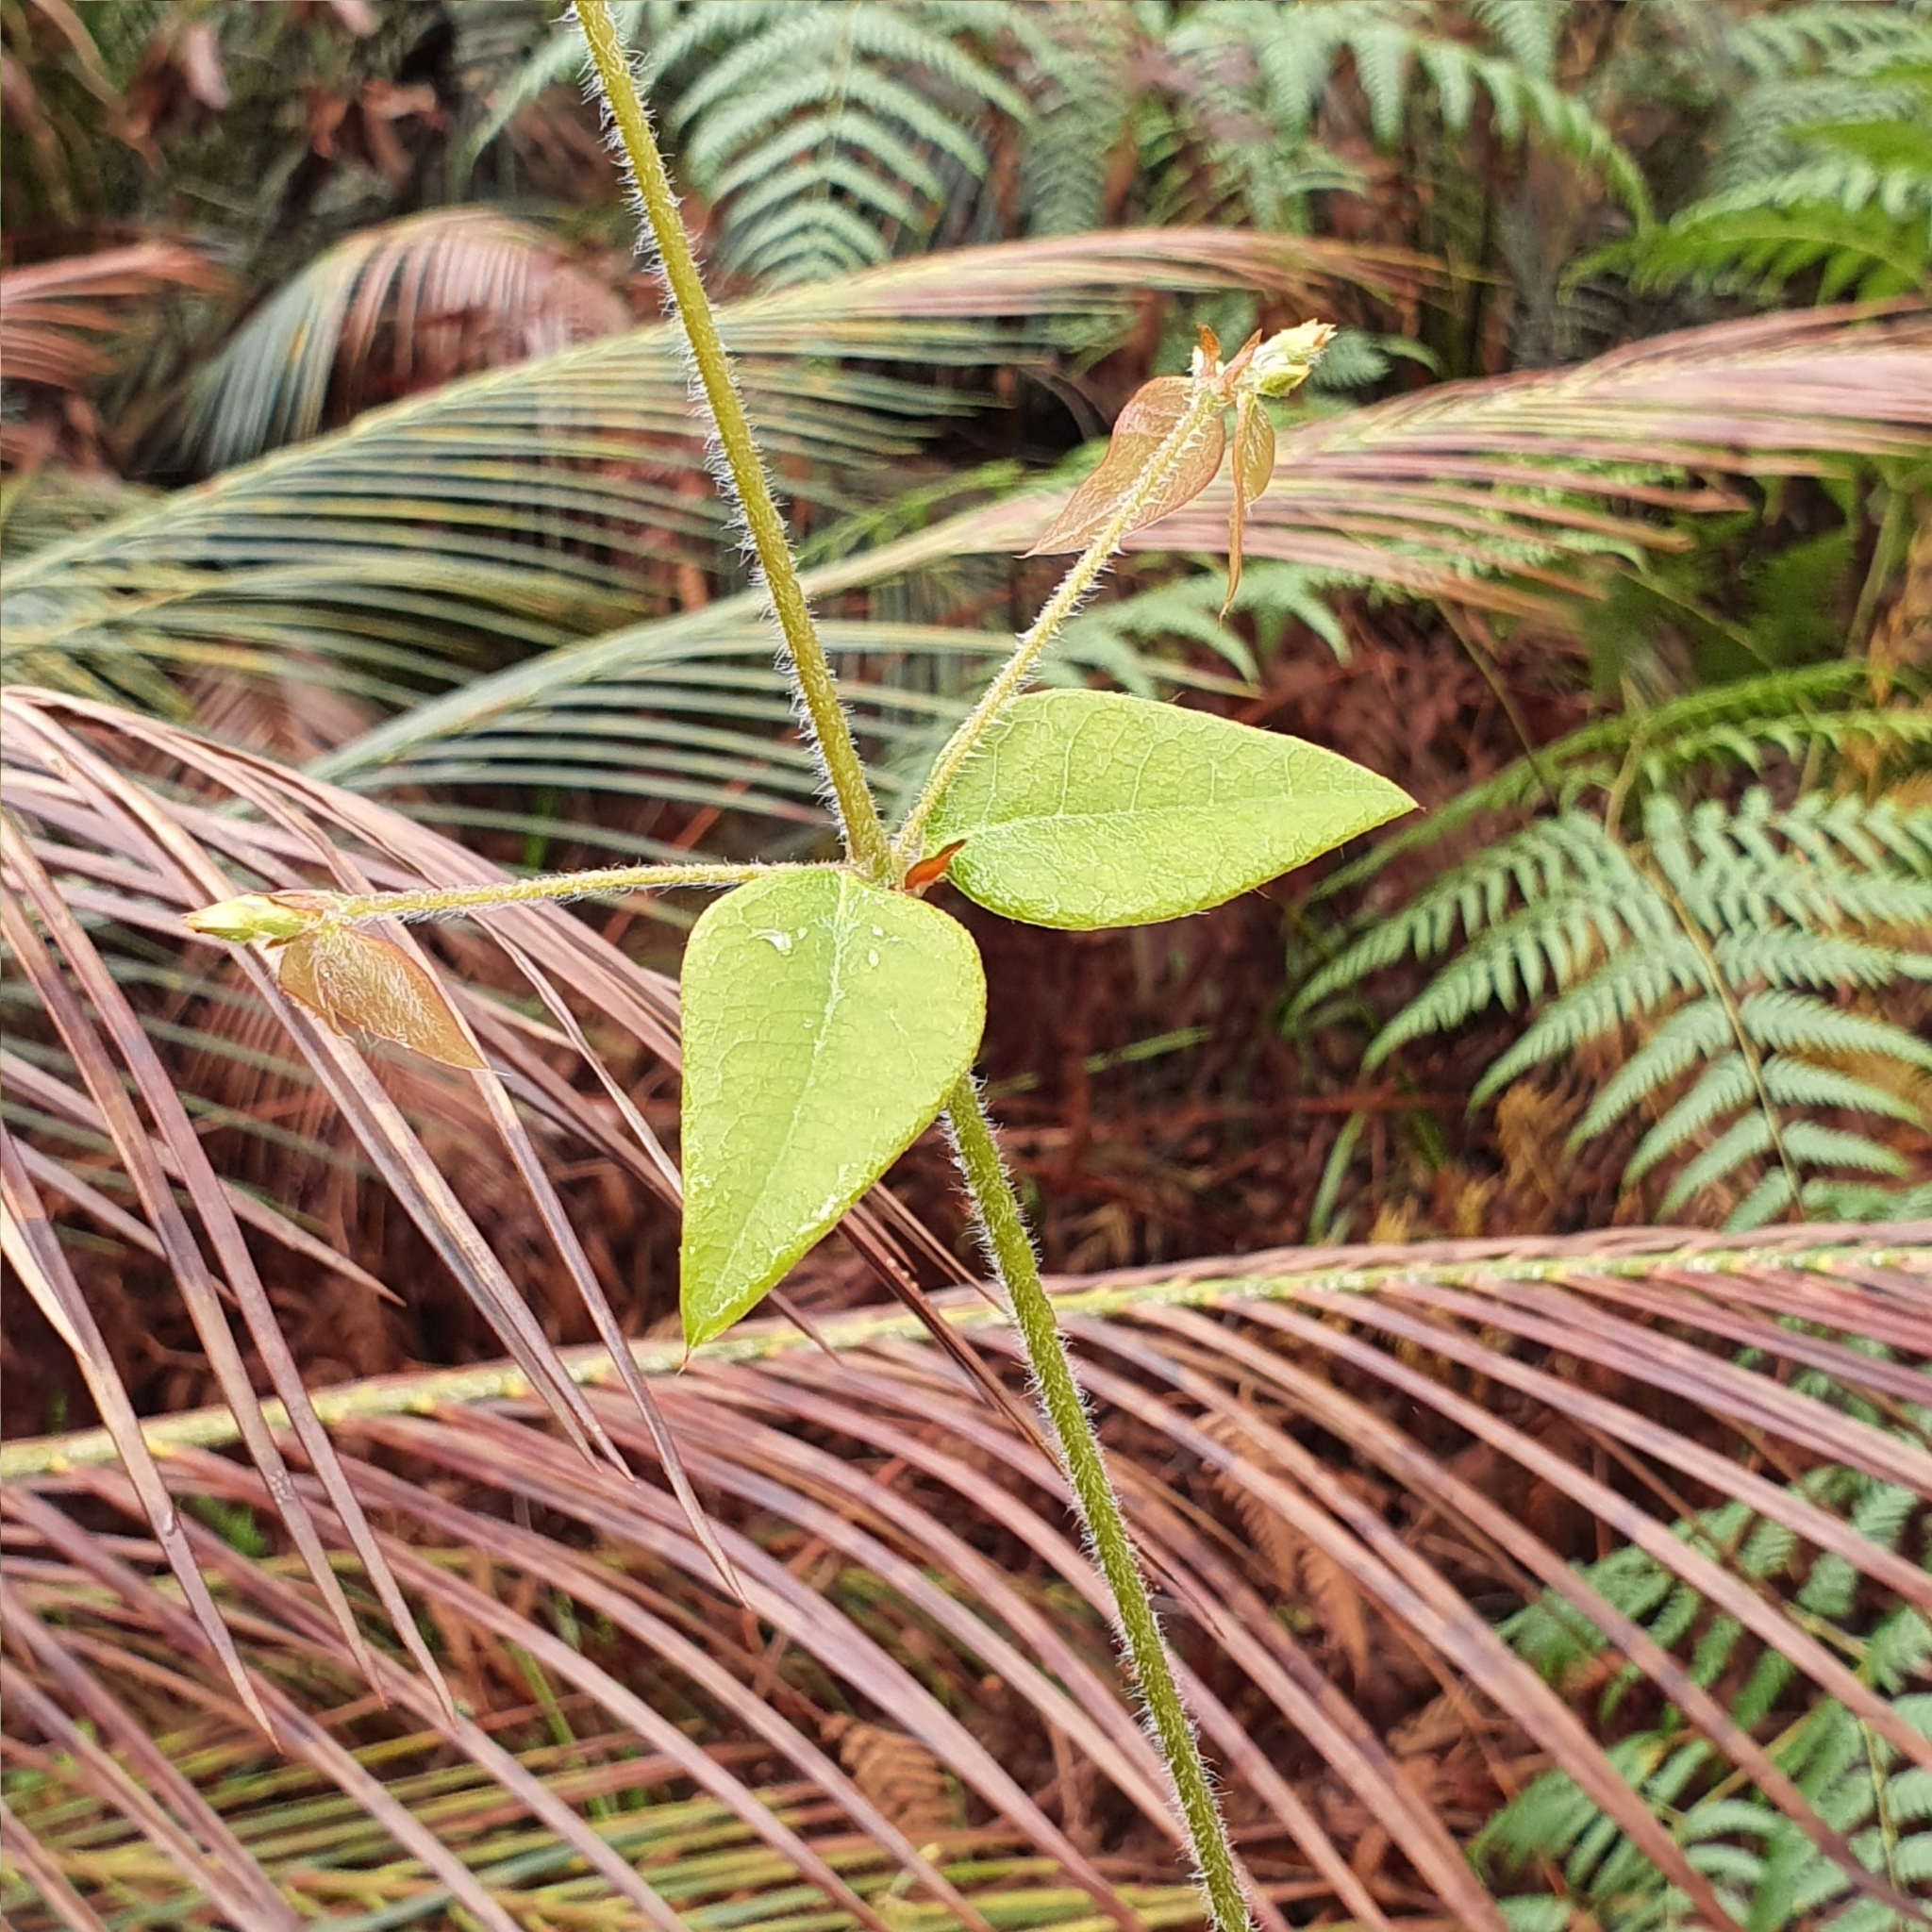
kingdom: Plantae
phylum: Tracheophyta
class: Magnoliopsida
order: Fabales
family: Fabaceae
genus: Platylobium
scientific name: Platylobium formosum
